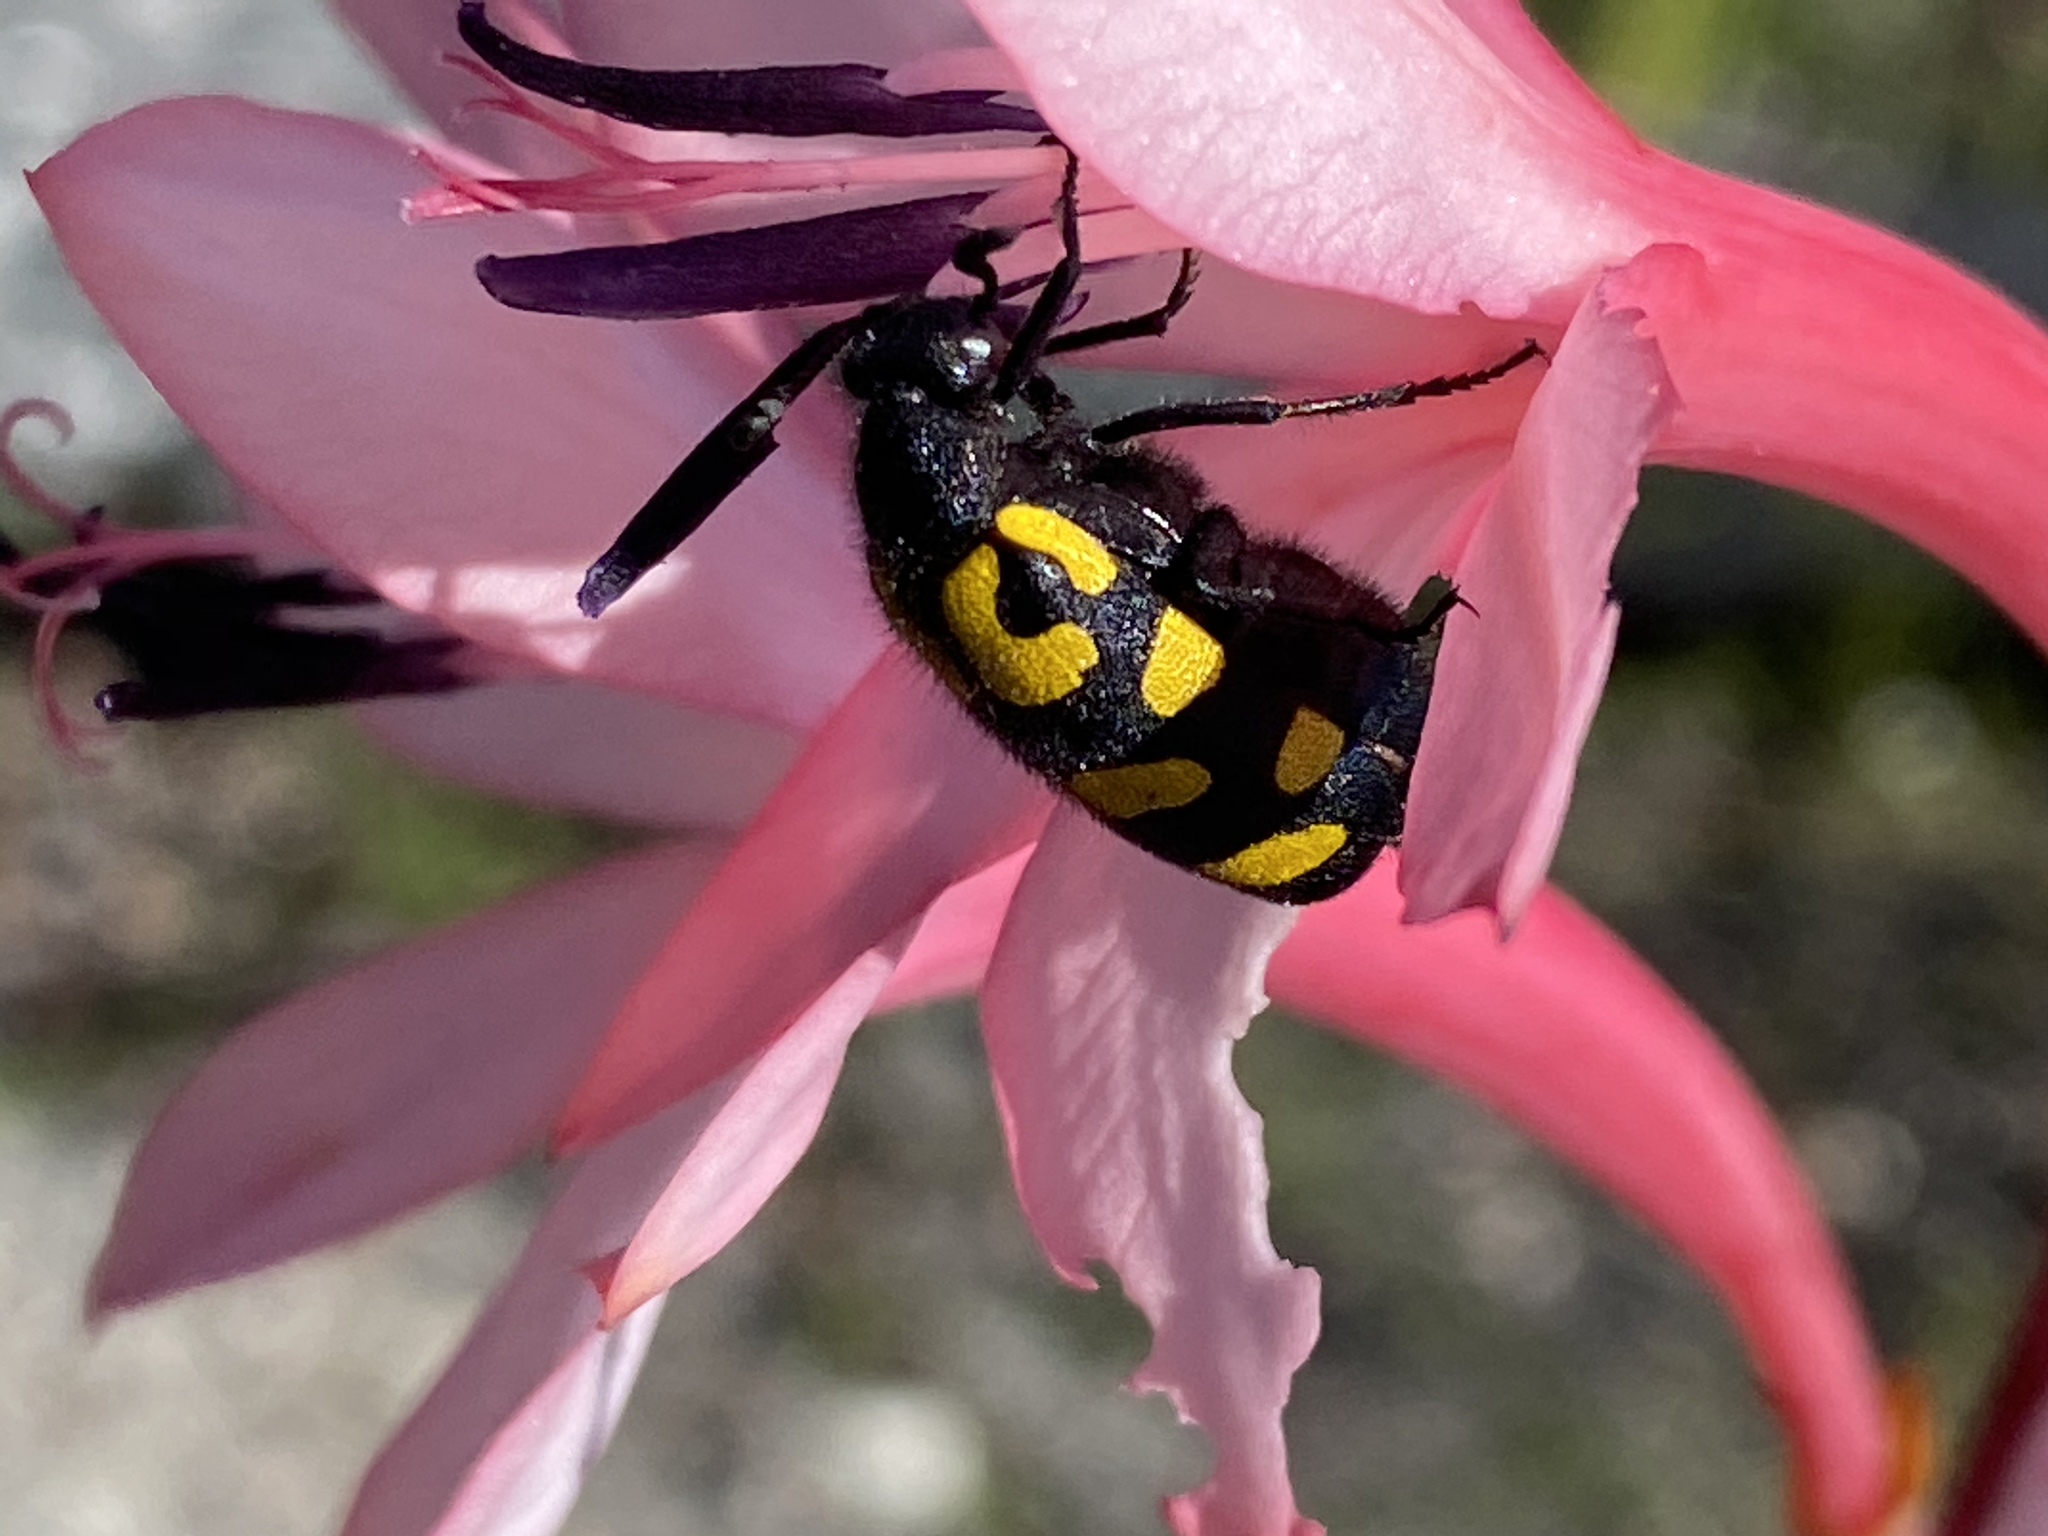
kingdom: Animalia
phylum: Arthropoda
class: Insecta
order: Coleoptera
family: Meloidae
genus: Ceroctis
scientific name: Ceroctis capensis
